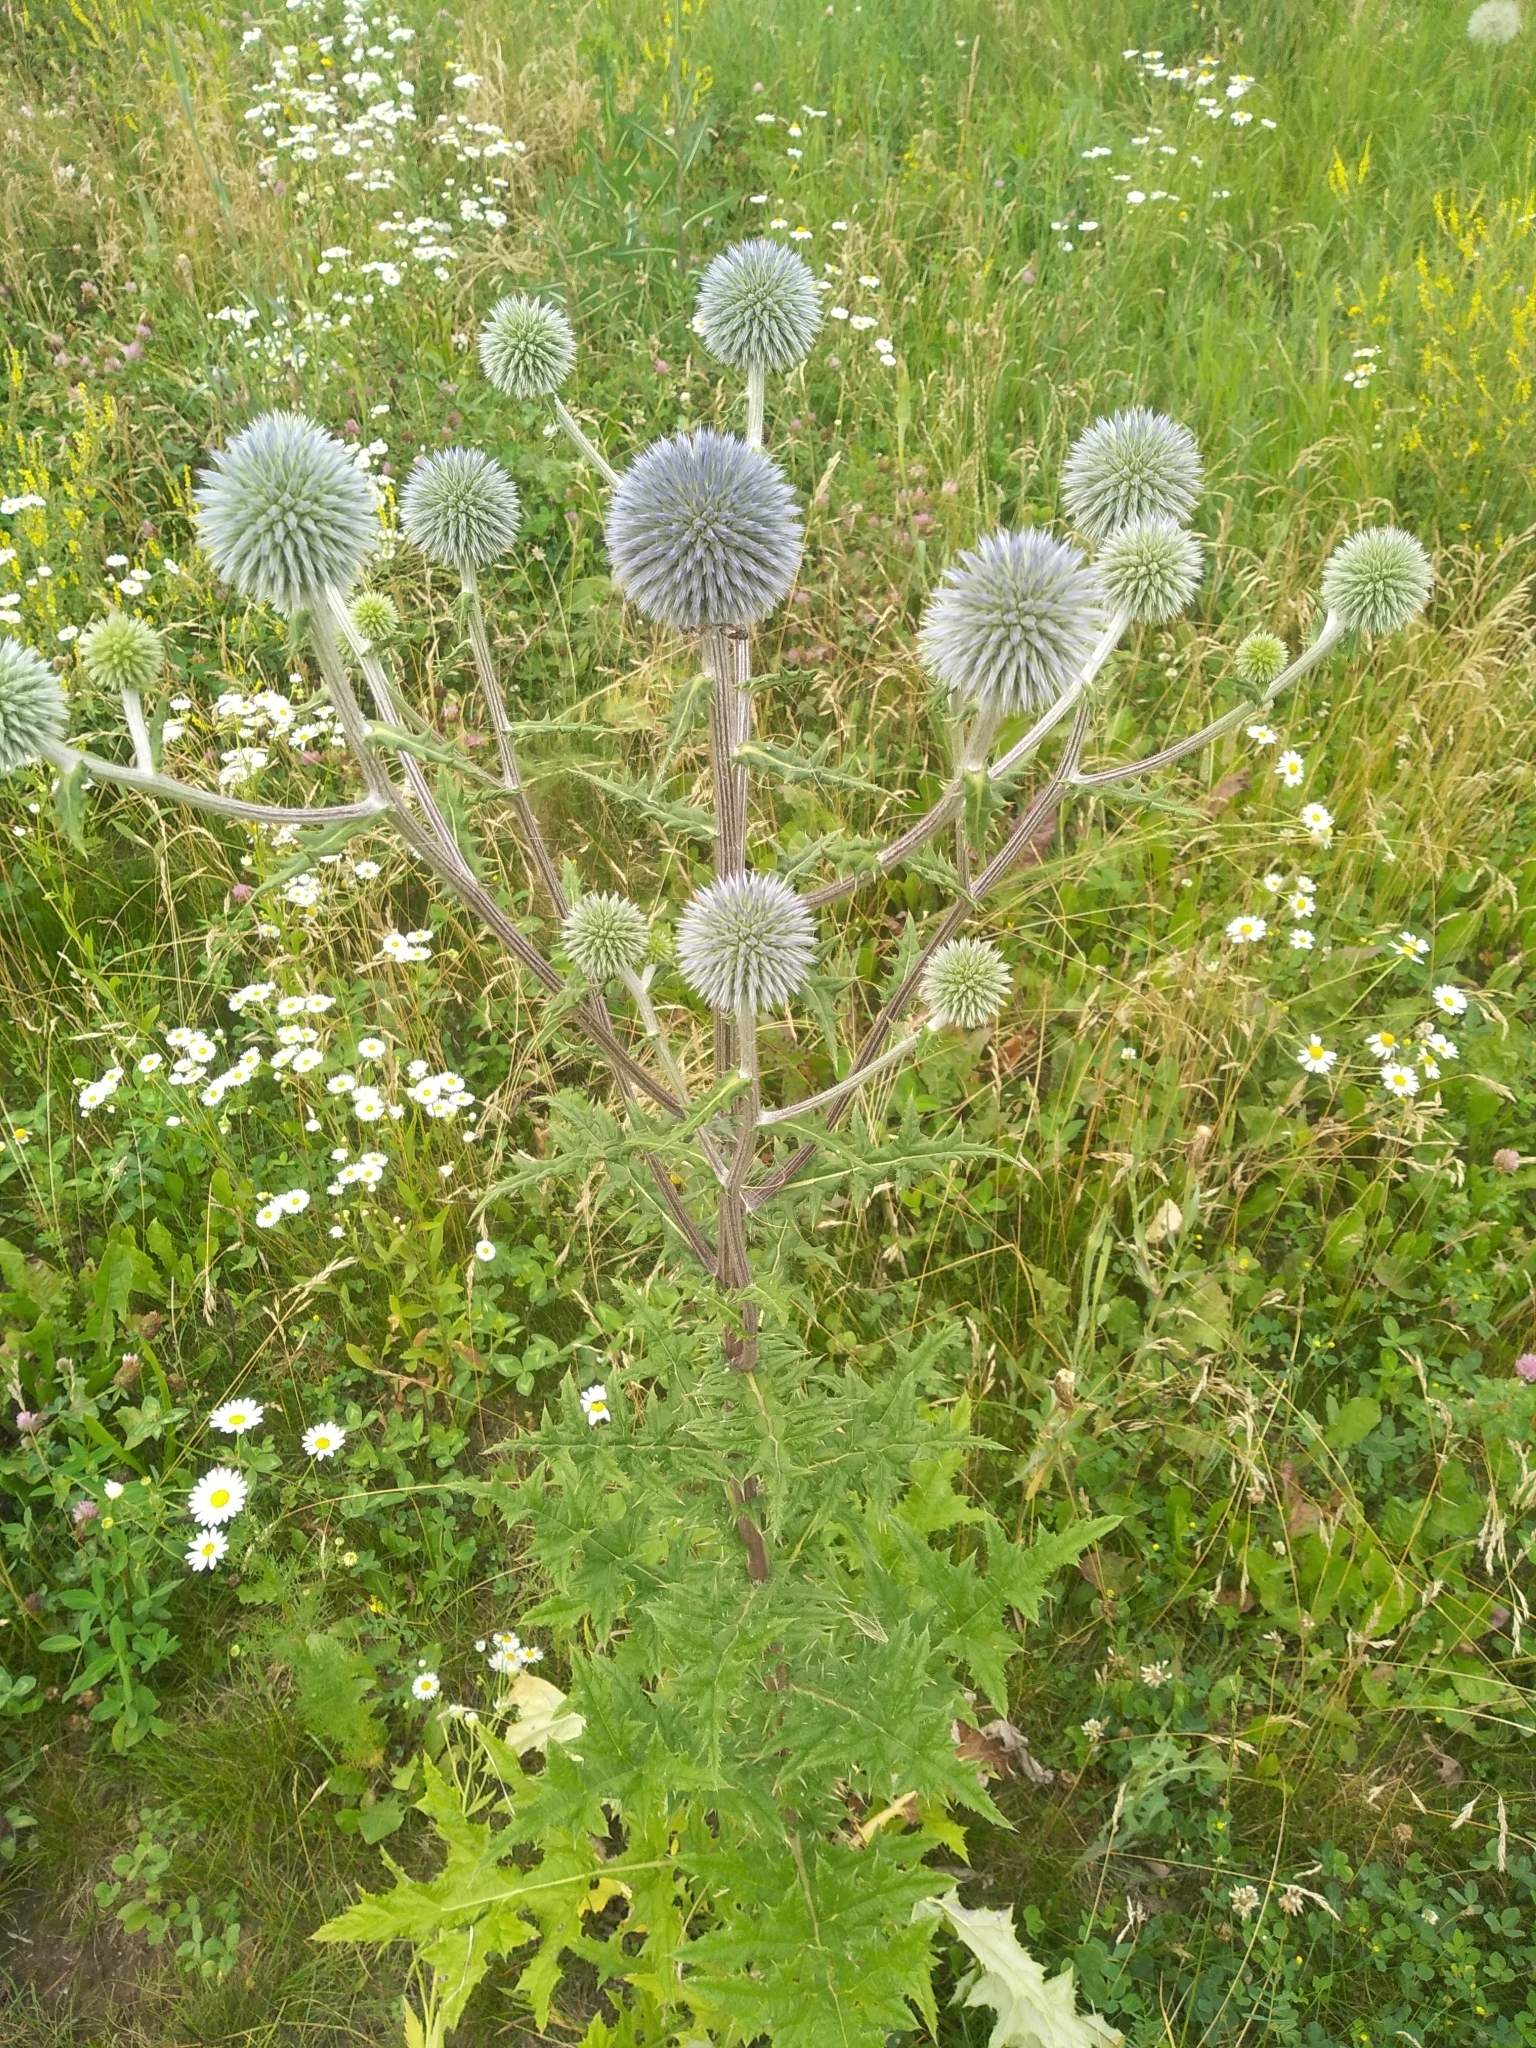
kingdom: Plantae
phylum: Tracheophyta
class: Magnoliopsida
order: Asterales
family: Asteraceae
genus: Echinops
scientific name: Echinops sphaerocephalus
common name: Glandular globe-thistle
